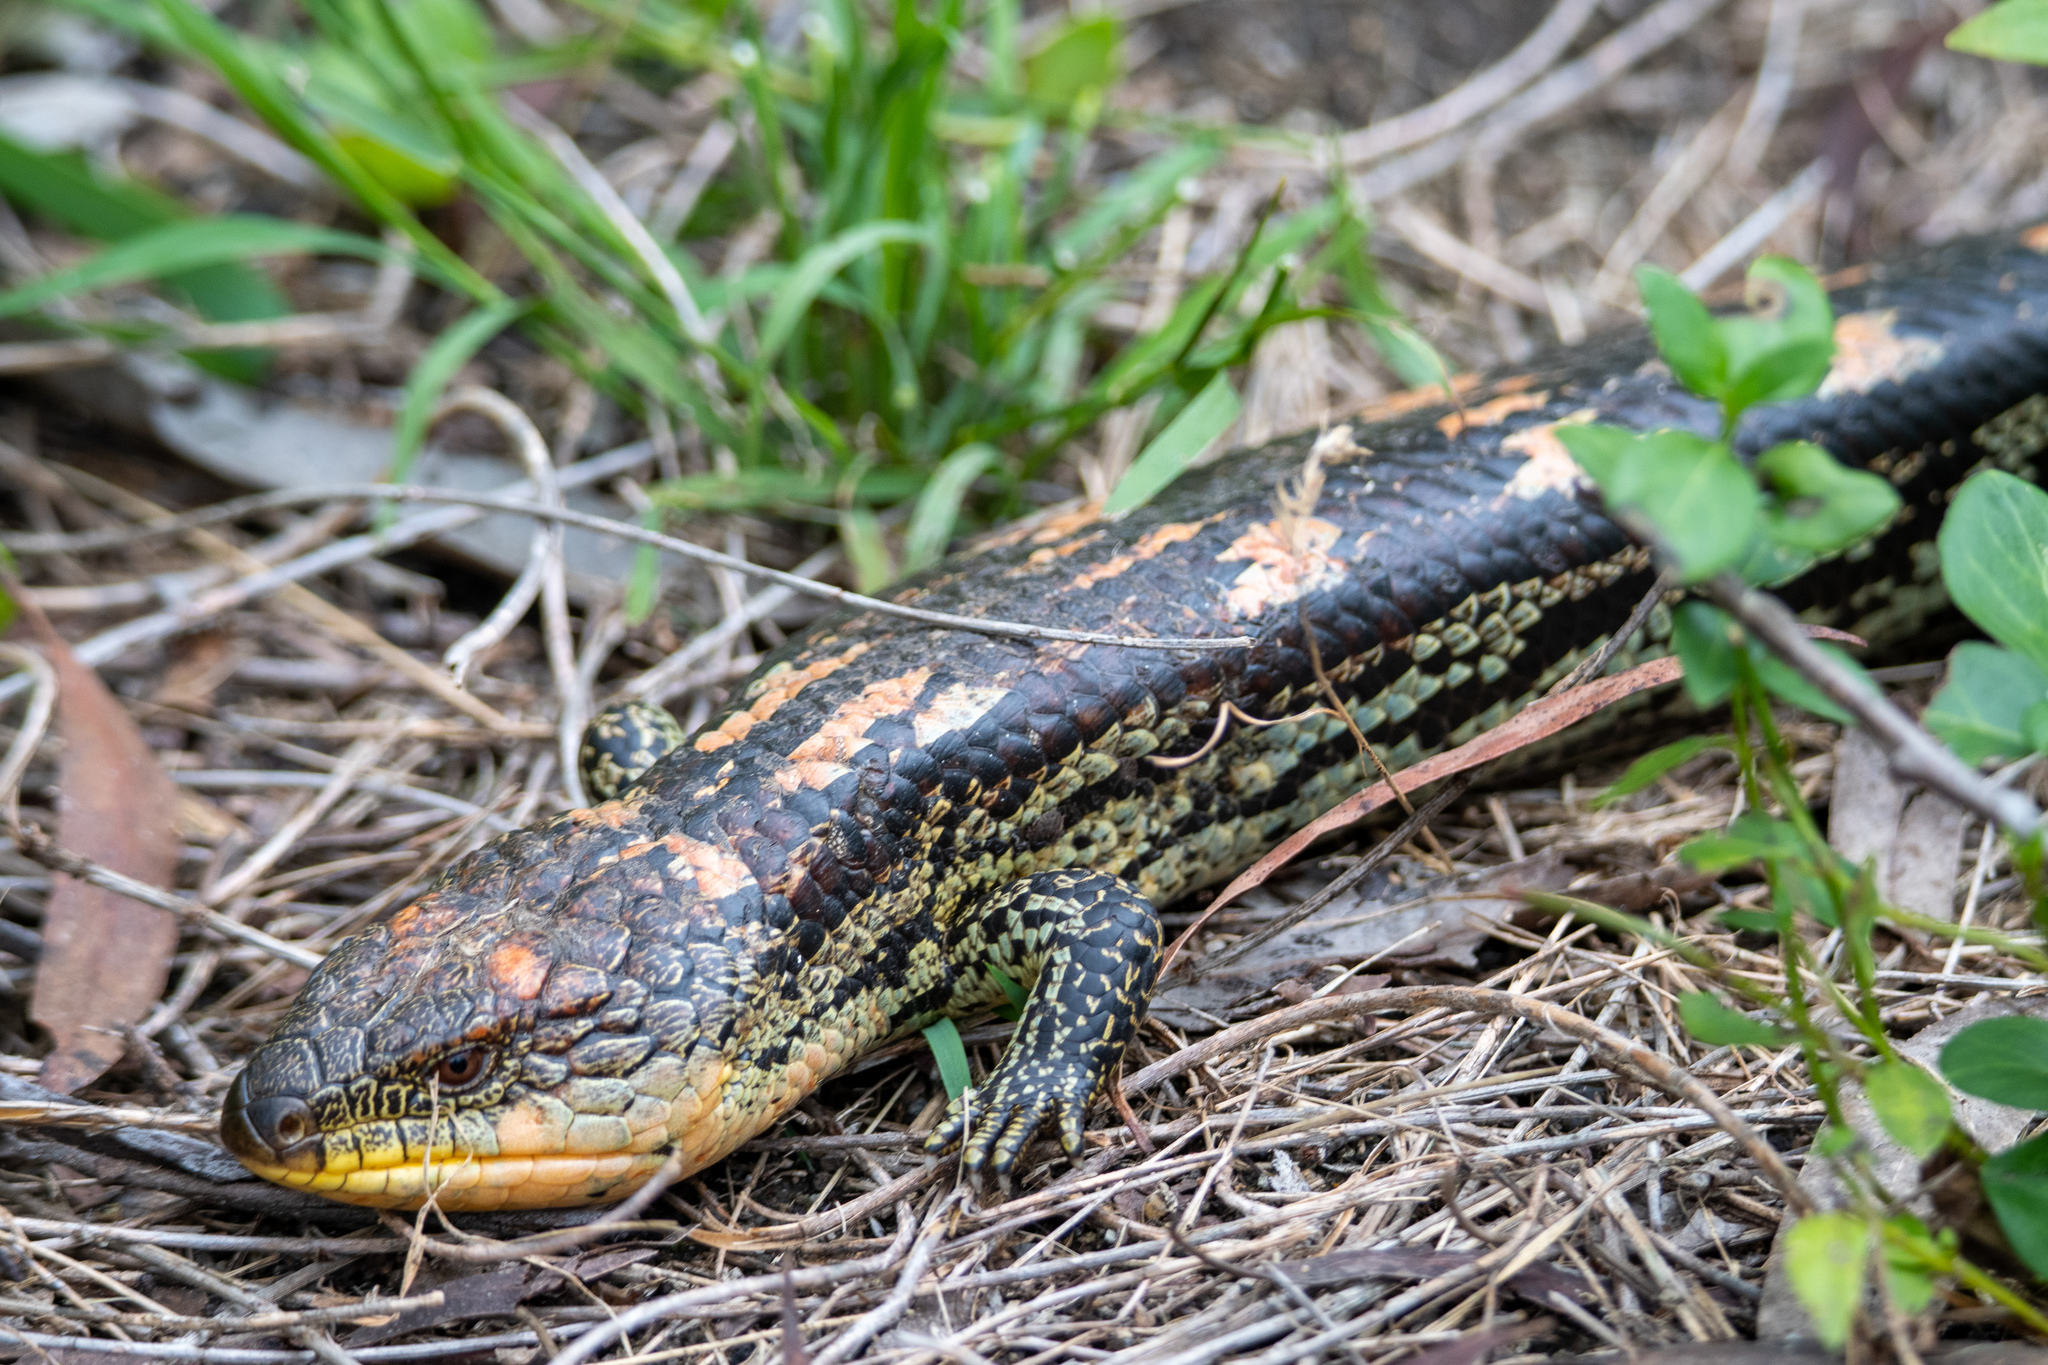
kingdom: Animalia
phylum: Chordata
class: Squamata
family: Scincidae
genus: Tiliqua
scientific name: Tiliqua nigrolutea
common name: Blotched blue-tongued lizard
